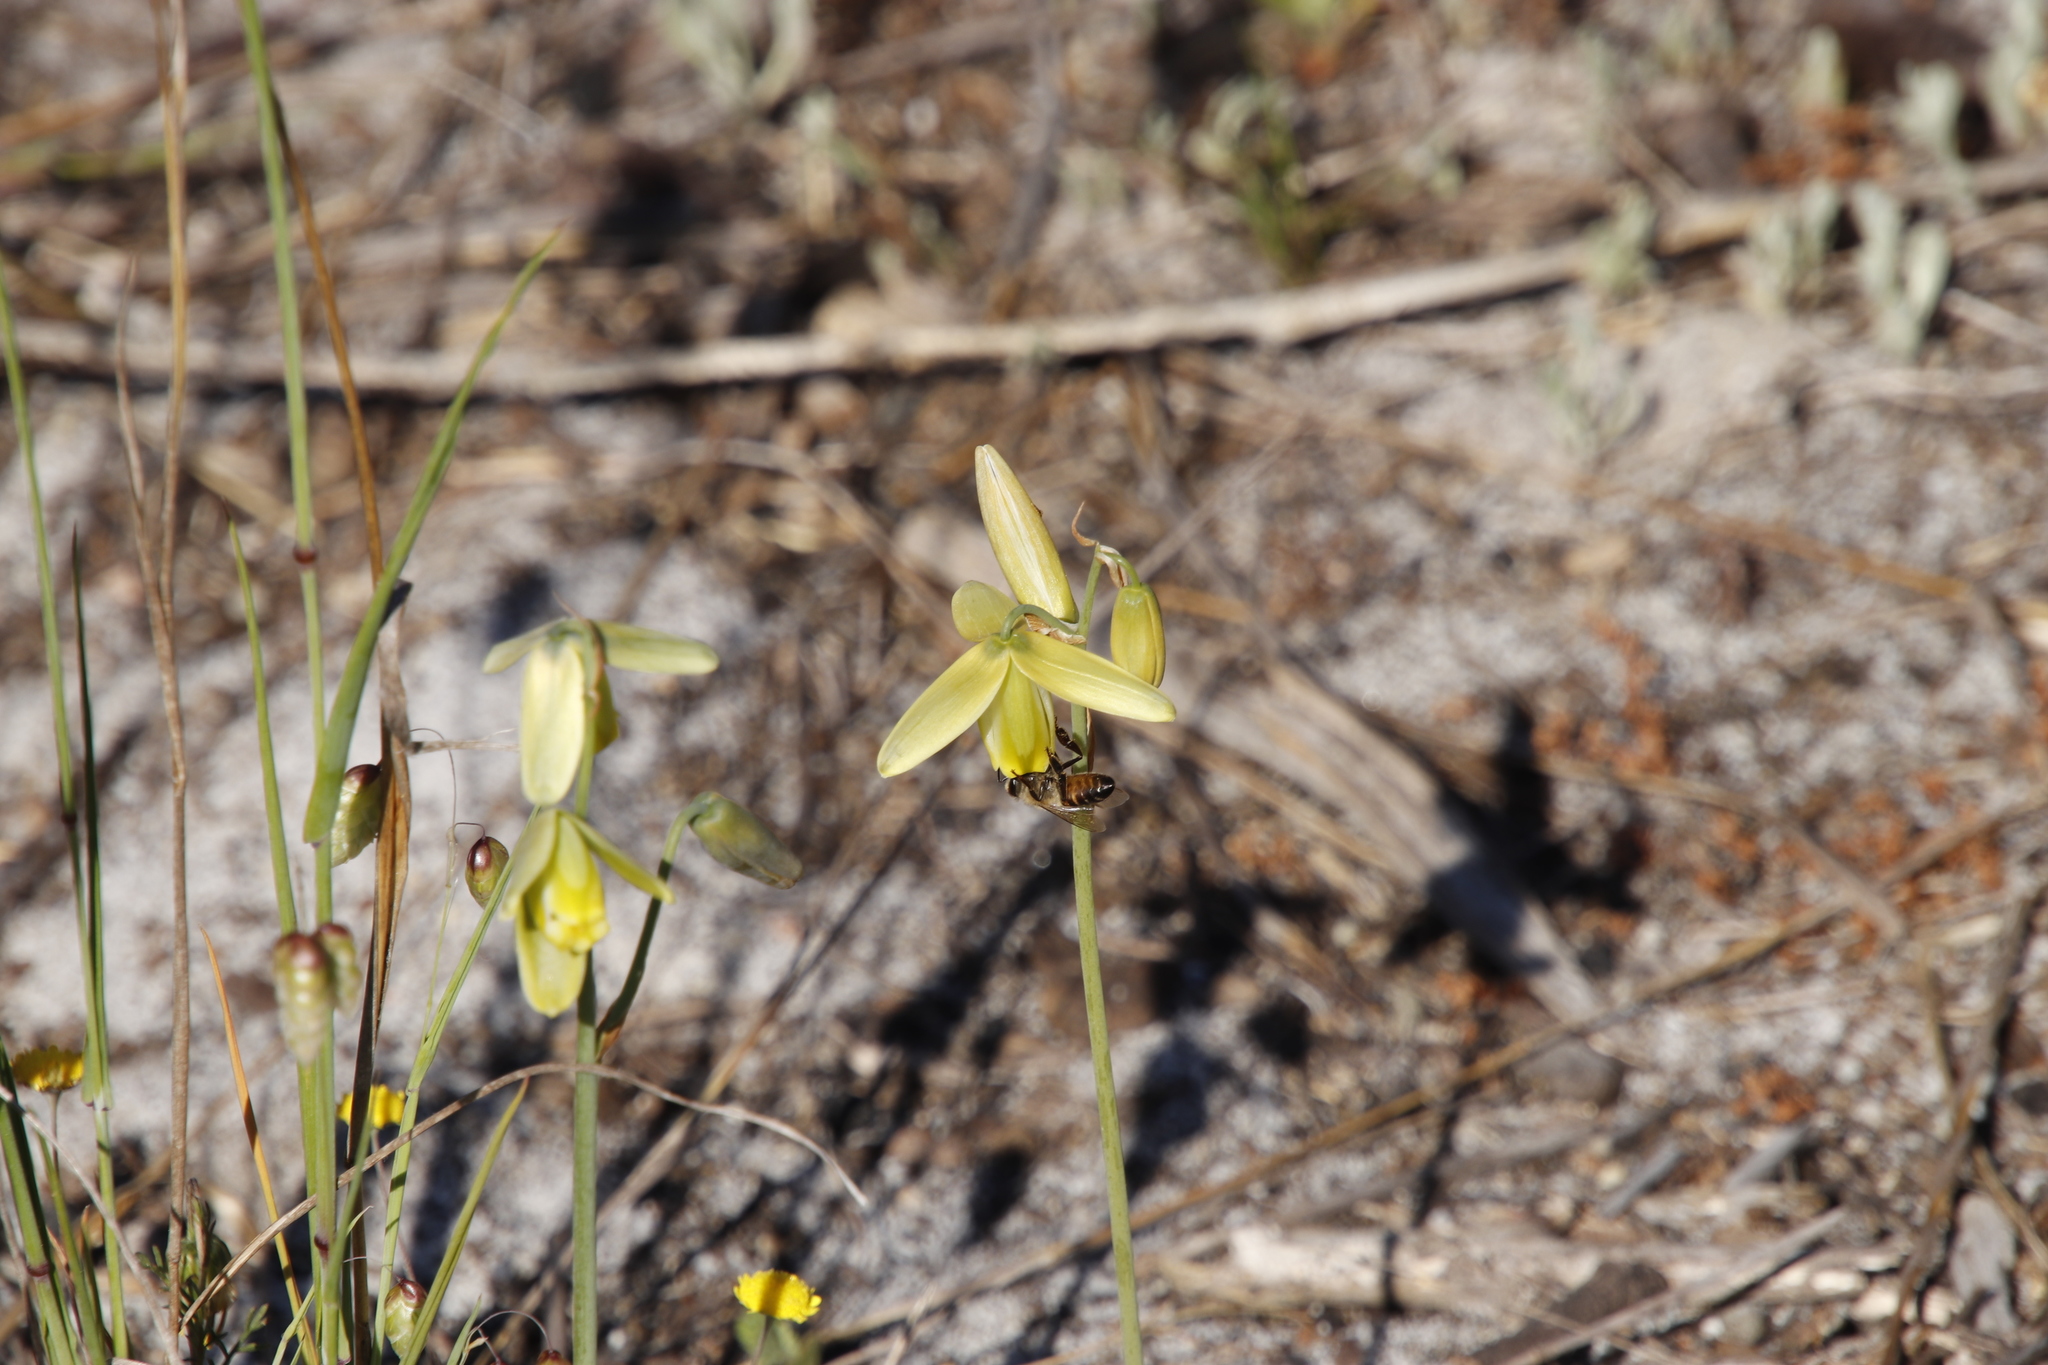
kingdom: Animalia
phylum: Arthropoda
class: Insecta
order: Hymenoptera
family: Apidae
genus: Apis
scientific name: Apis mellifera
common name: Honey bee
